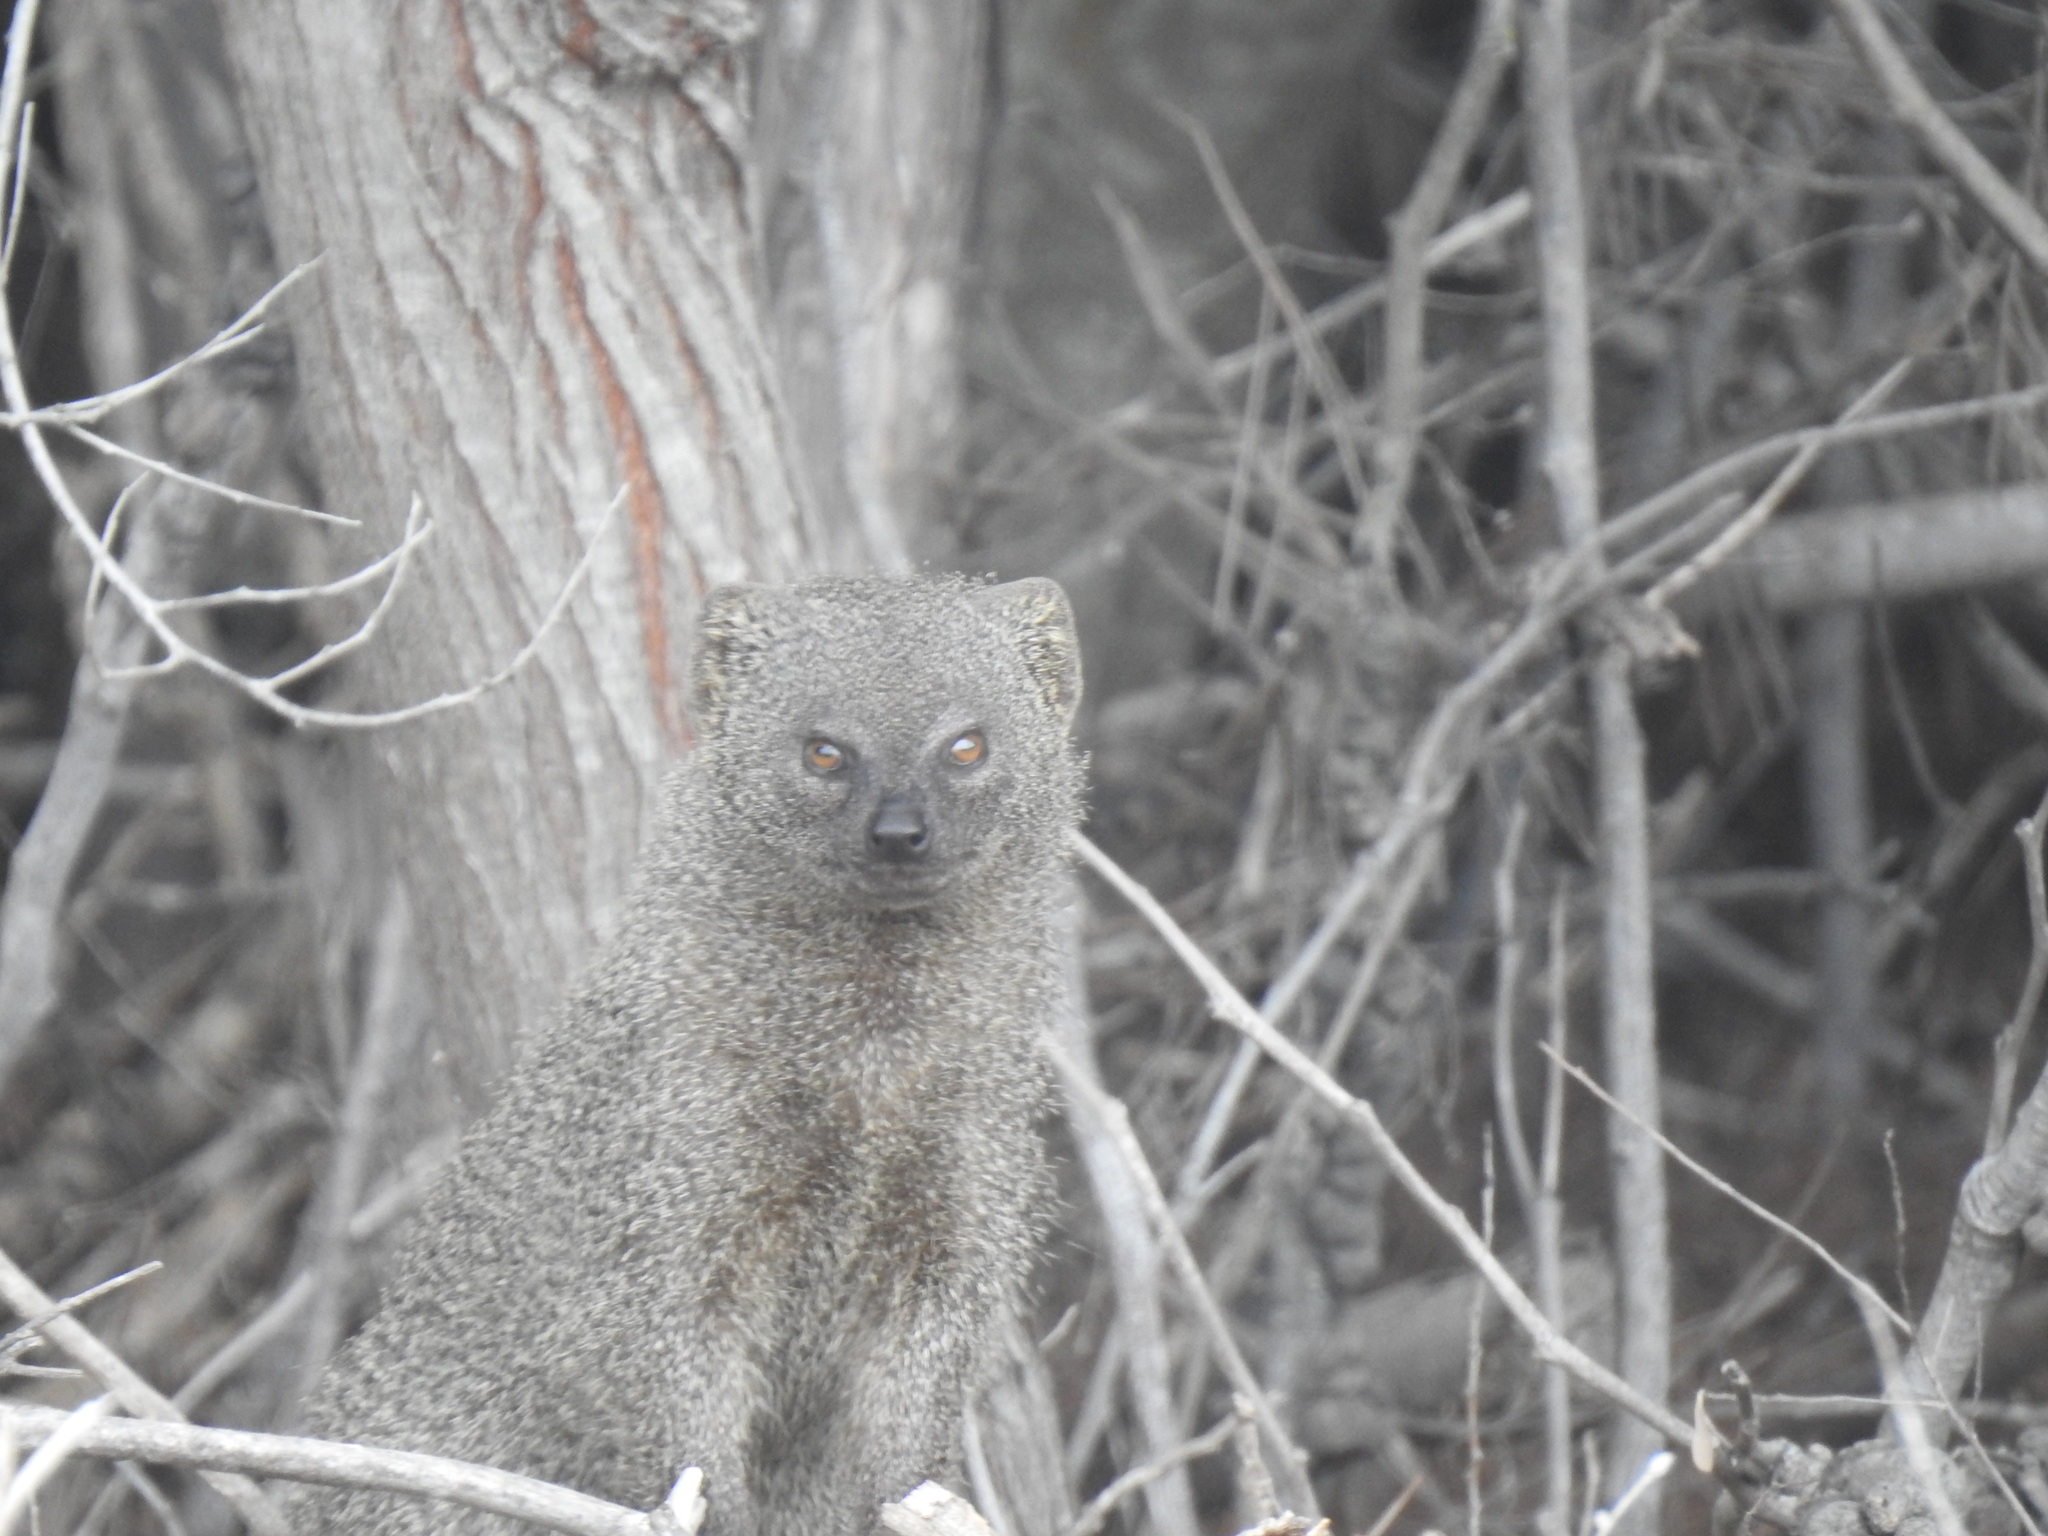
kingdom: Animalia
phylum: Chordata
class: Mammalia
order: Carnivora
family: Herpestidae
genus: Galerella
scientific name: Galerella pulverulenta
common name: Cape gray mongoose
